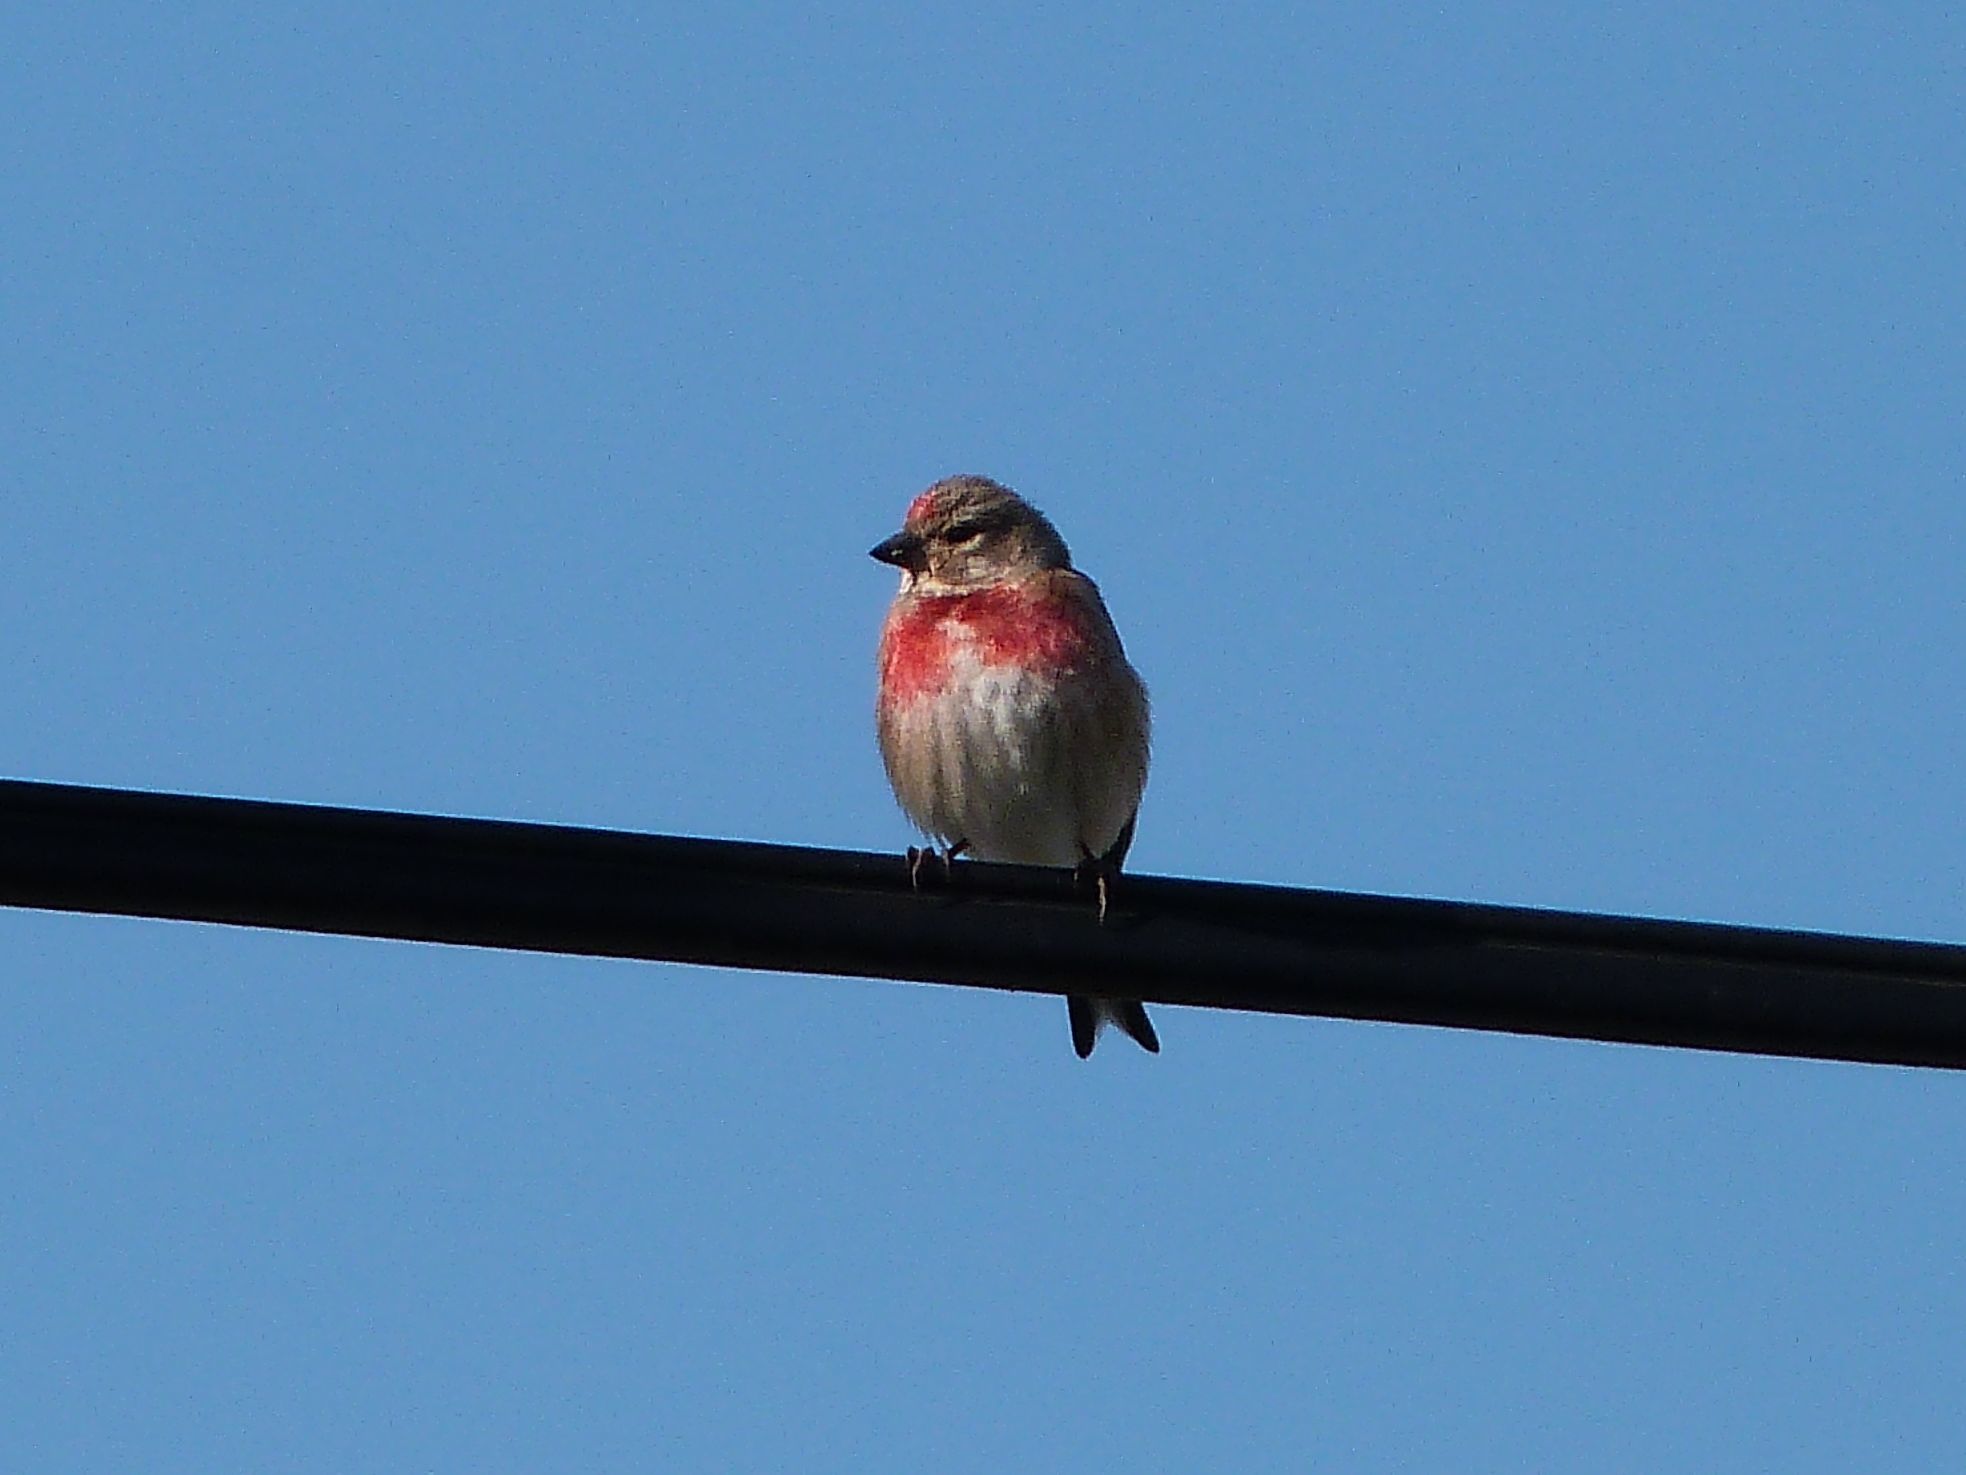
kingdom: Animalia
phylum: Chordata
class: Aves
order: Passeriformes
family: Fringillidae
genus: Linaria
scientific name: Linaria cannabina
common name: Common linnet
